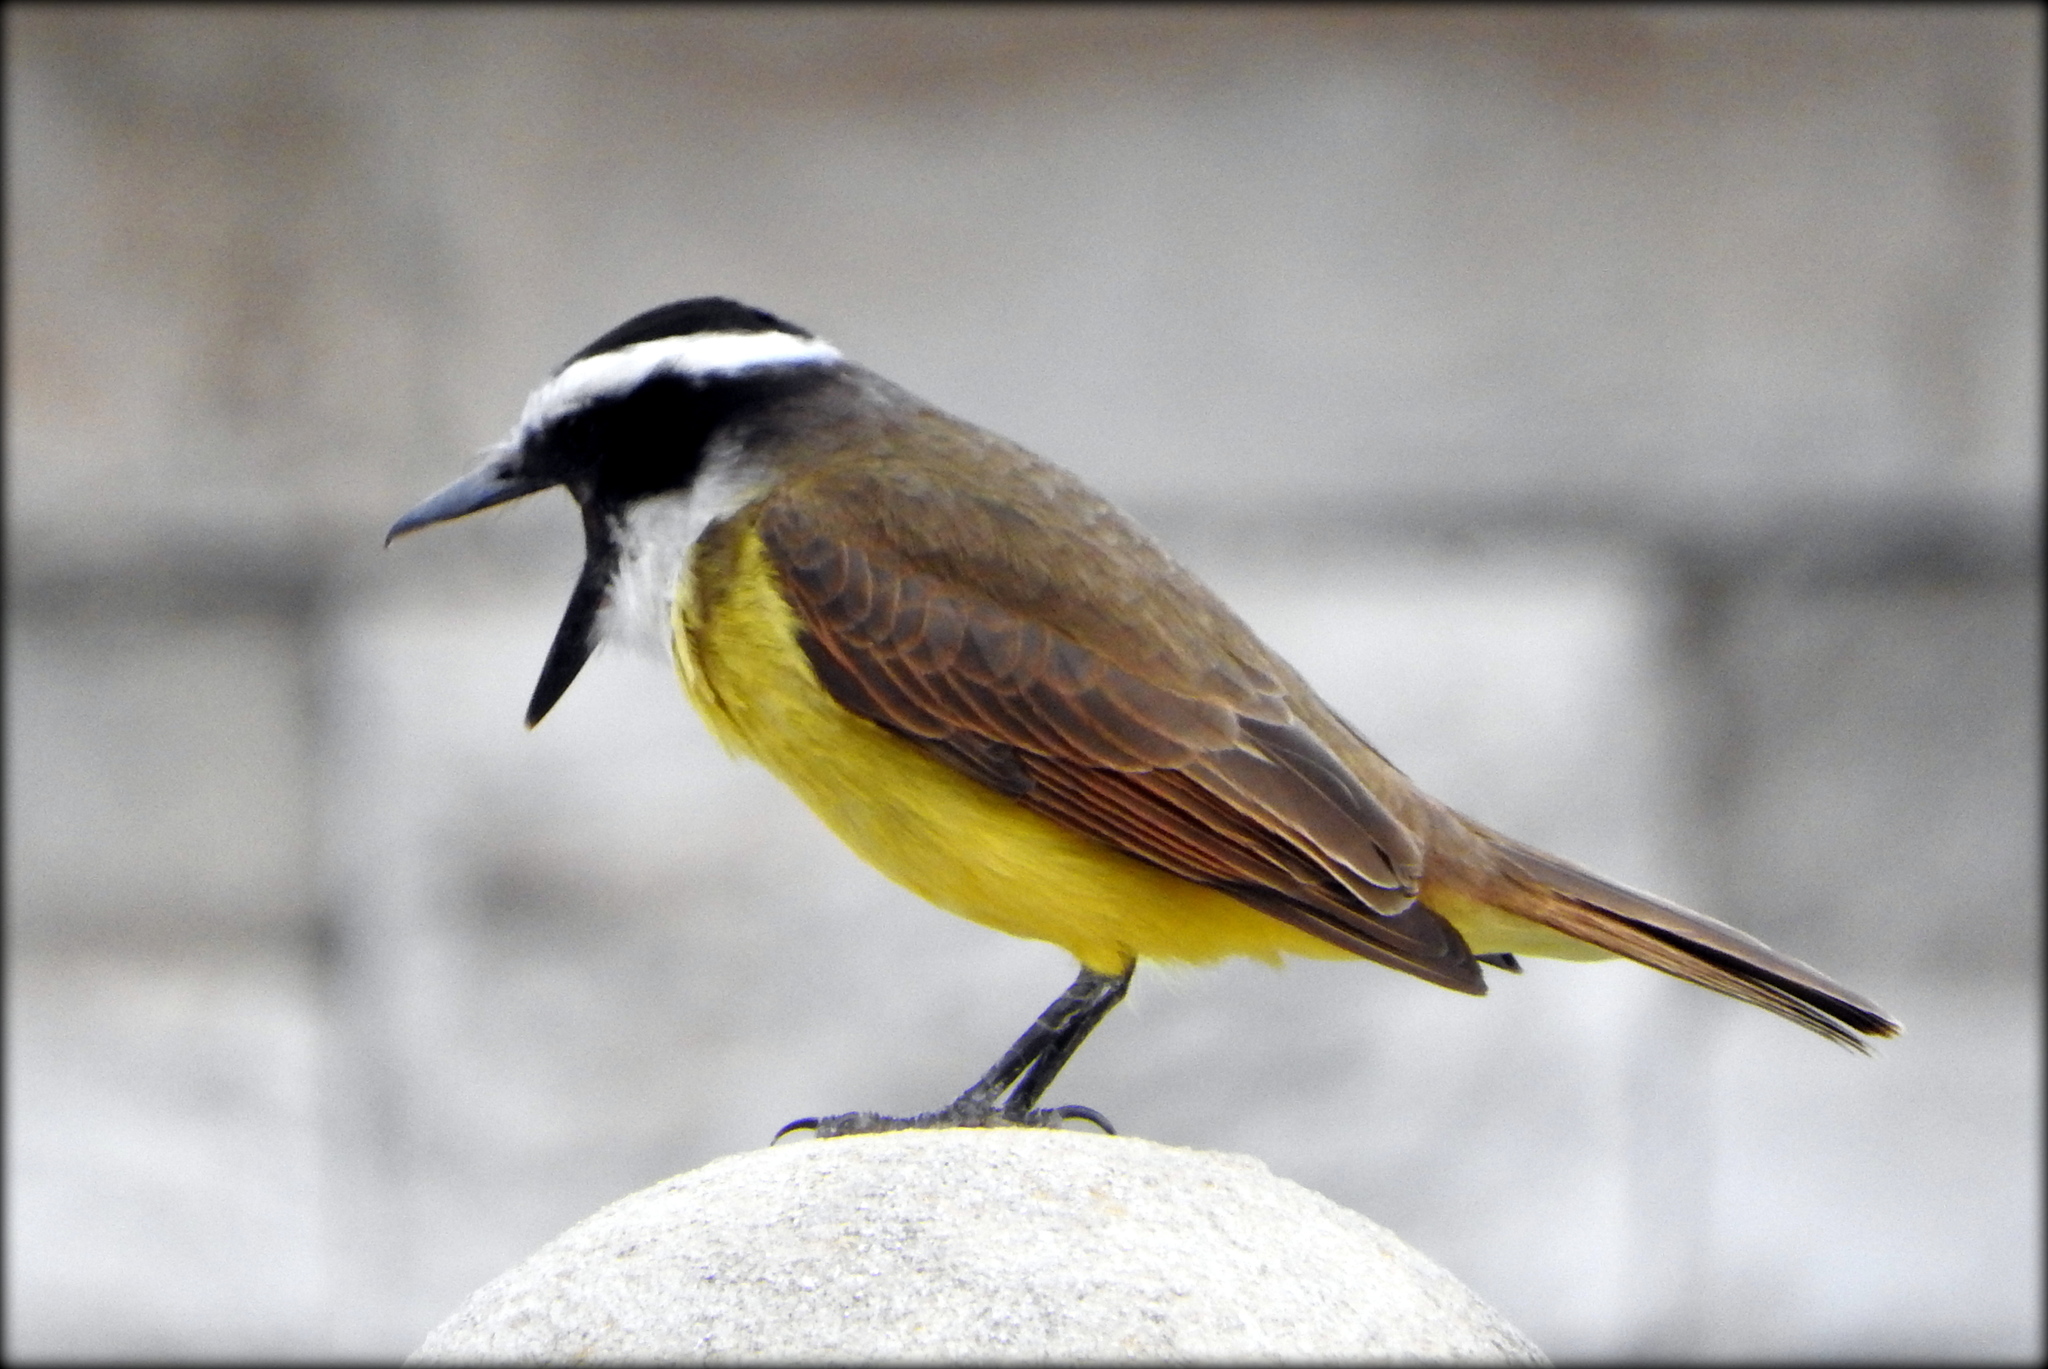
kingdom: Animalia
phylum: Chordata
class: Aves
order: Passeriformes
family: Tyrannidae
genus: Pitangus
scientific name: Pitangus sulphuratus
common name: Great kiskadee
